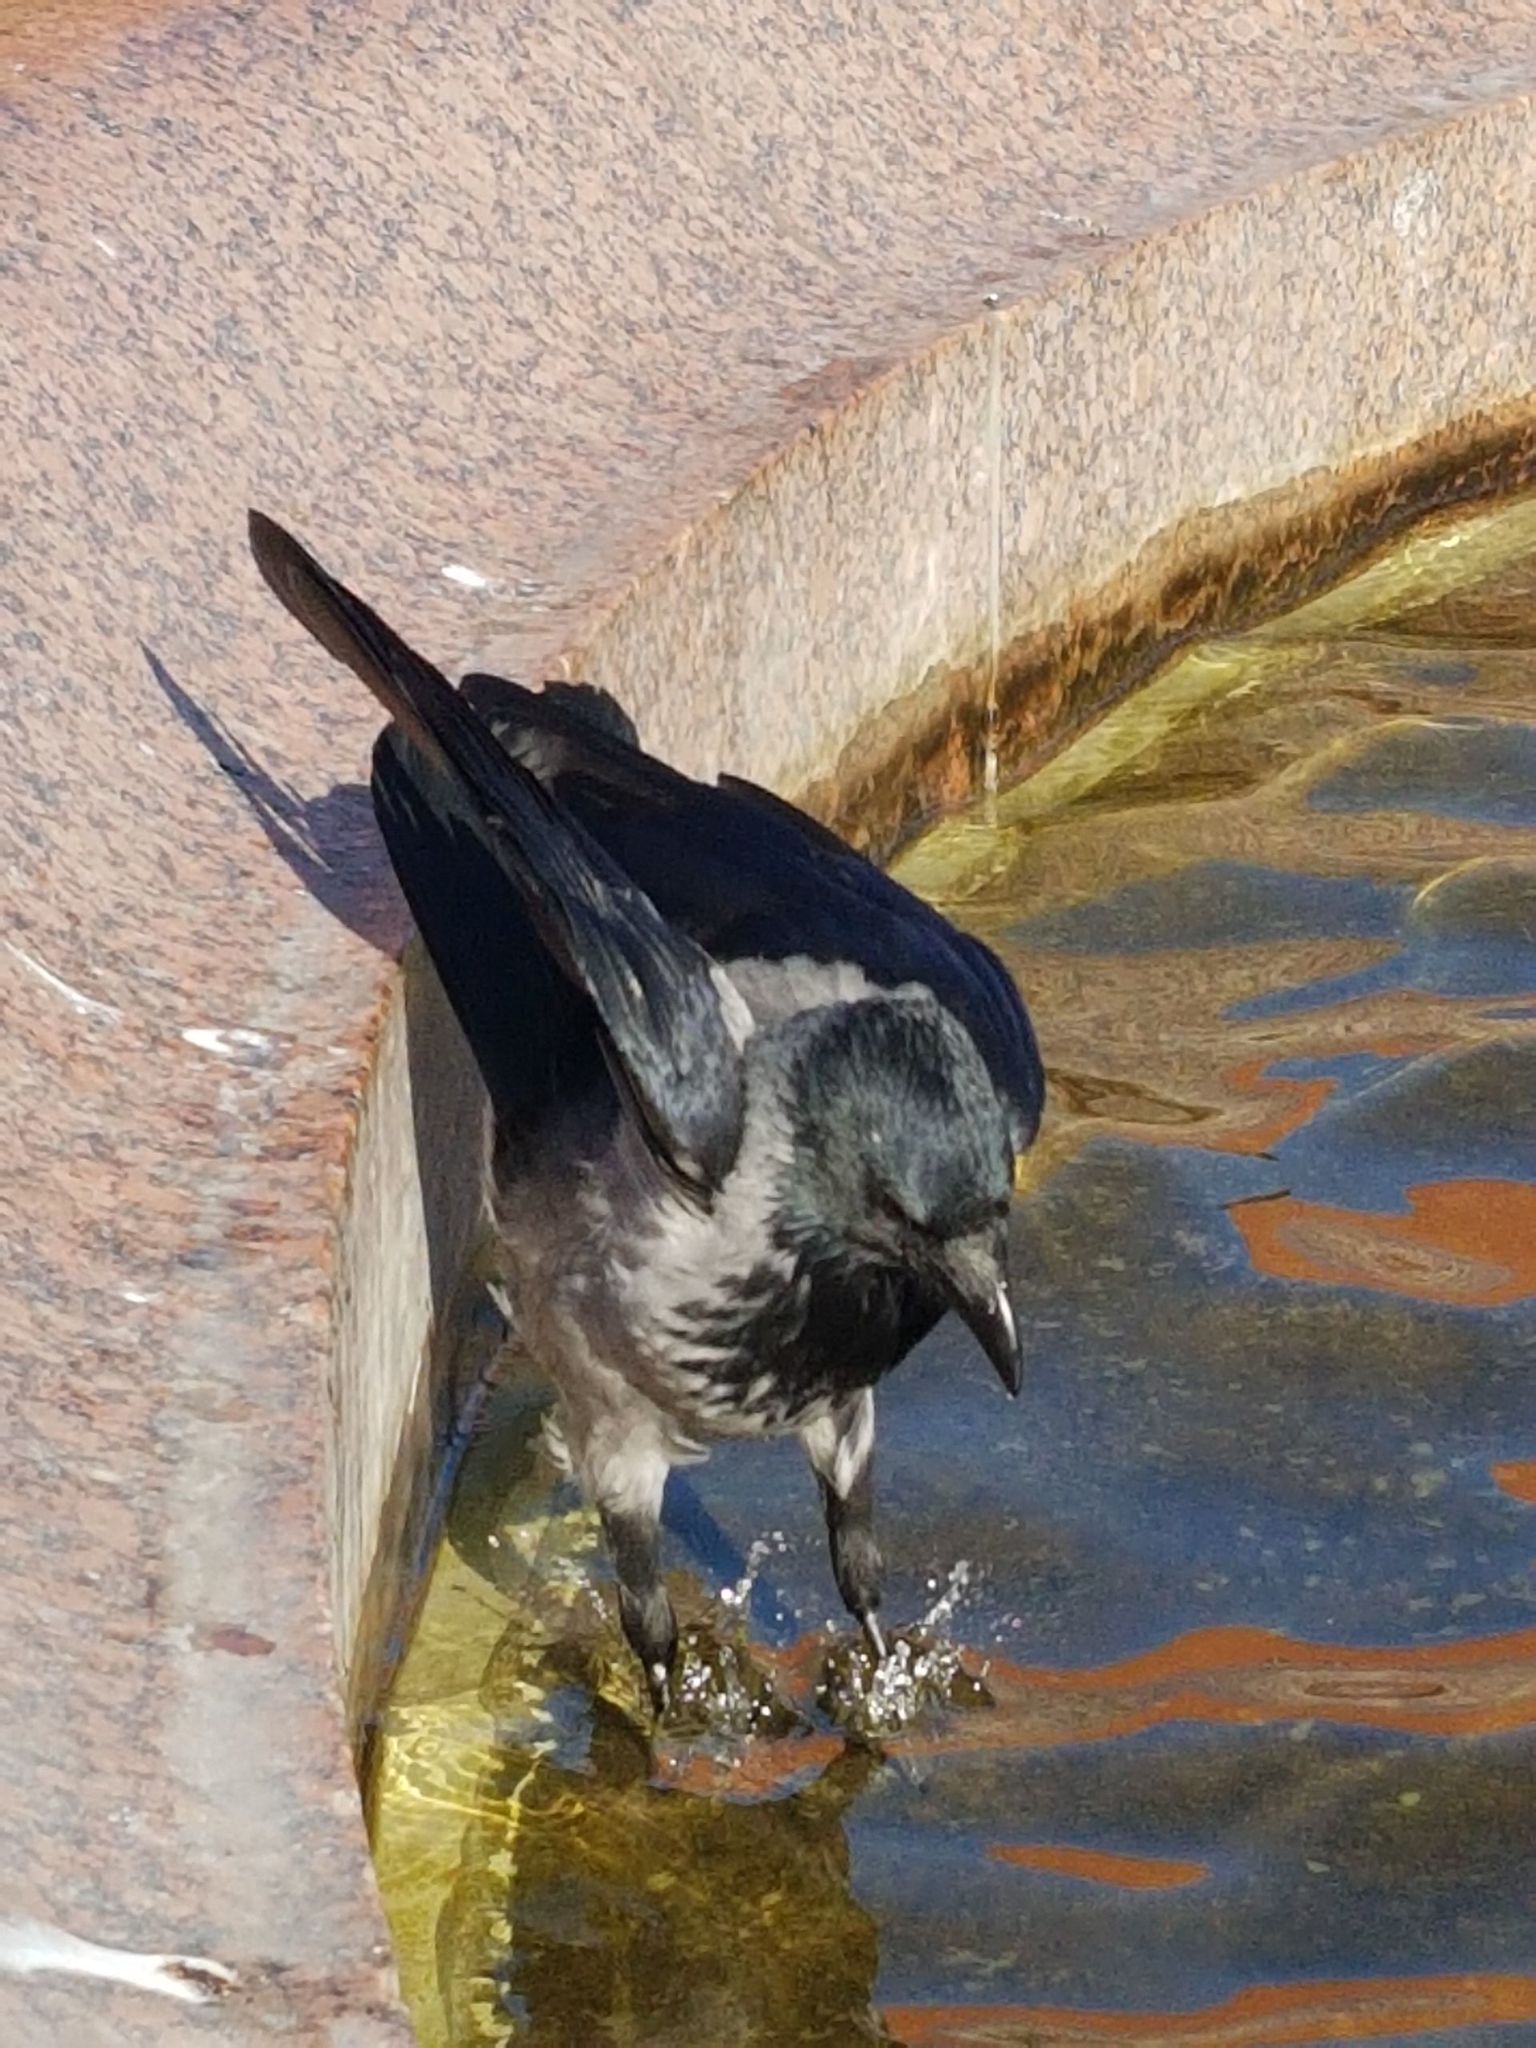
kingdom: Animalia
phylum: Chordata
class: Aves
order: Passeriformes
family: Corvidae
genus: Corvus
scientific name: Corvus cornix
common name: Hooded crow
